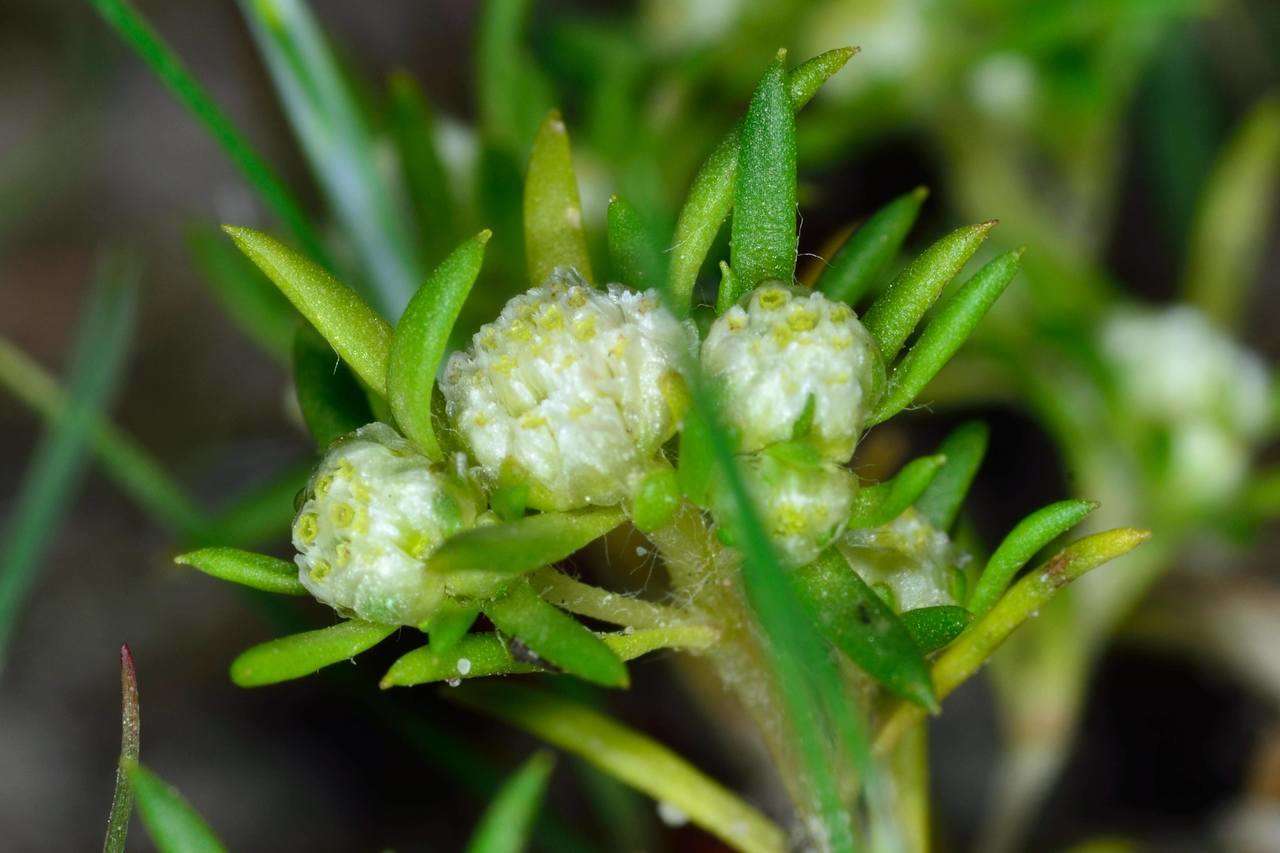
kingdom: Plantae
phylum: Tracheophyta
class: Magnoliopsida
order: Asterales
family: Asteraceae
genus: Siloxerus
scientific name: Siloxerus multiflorus
